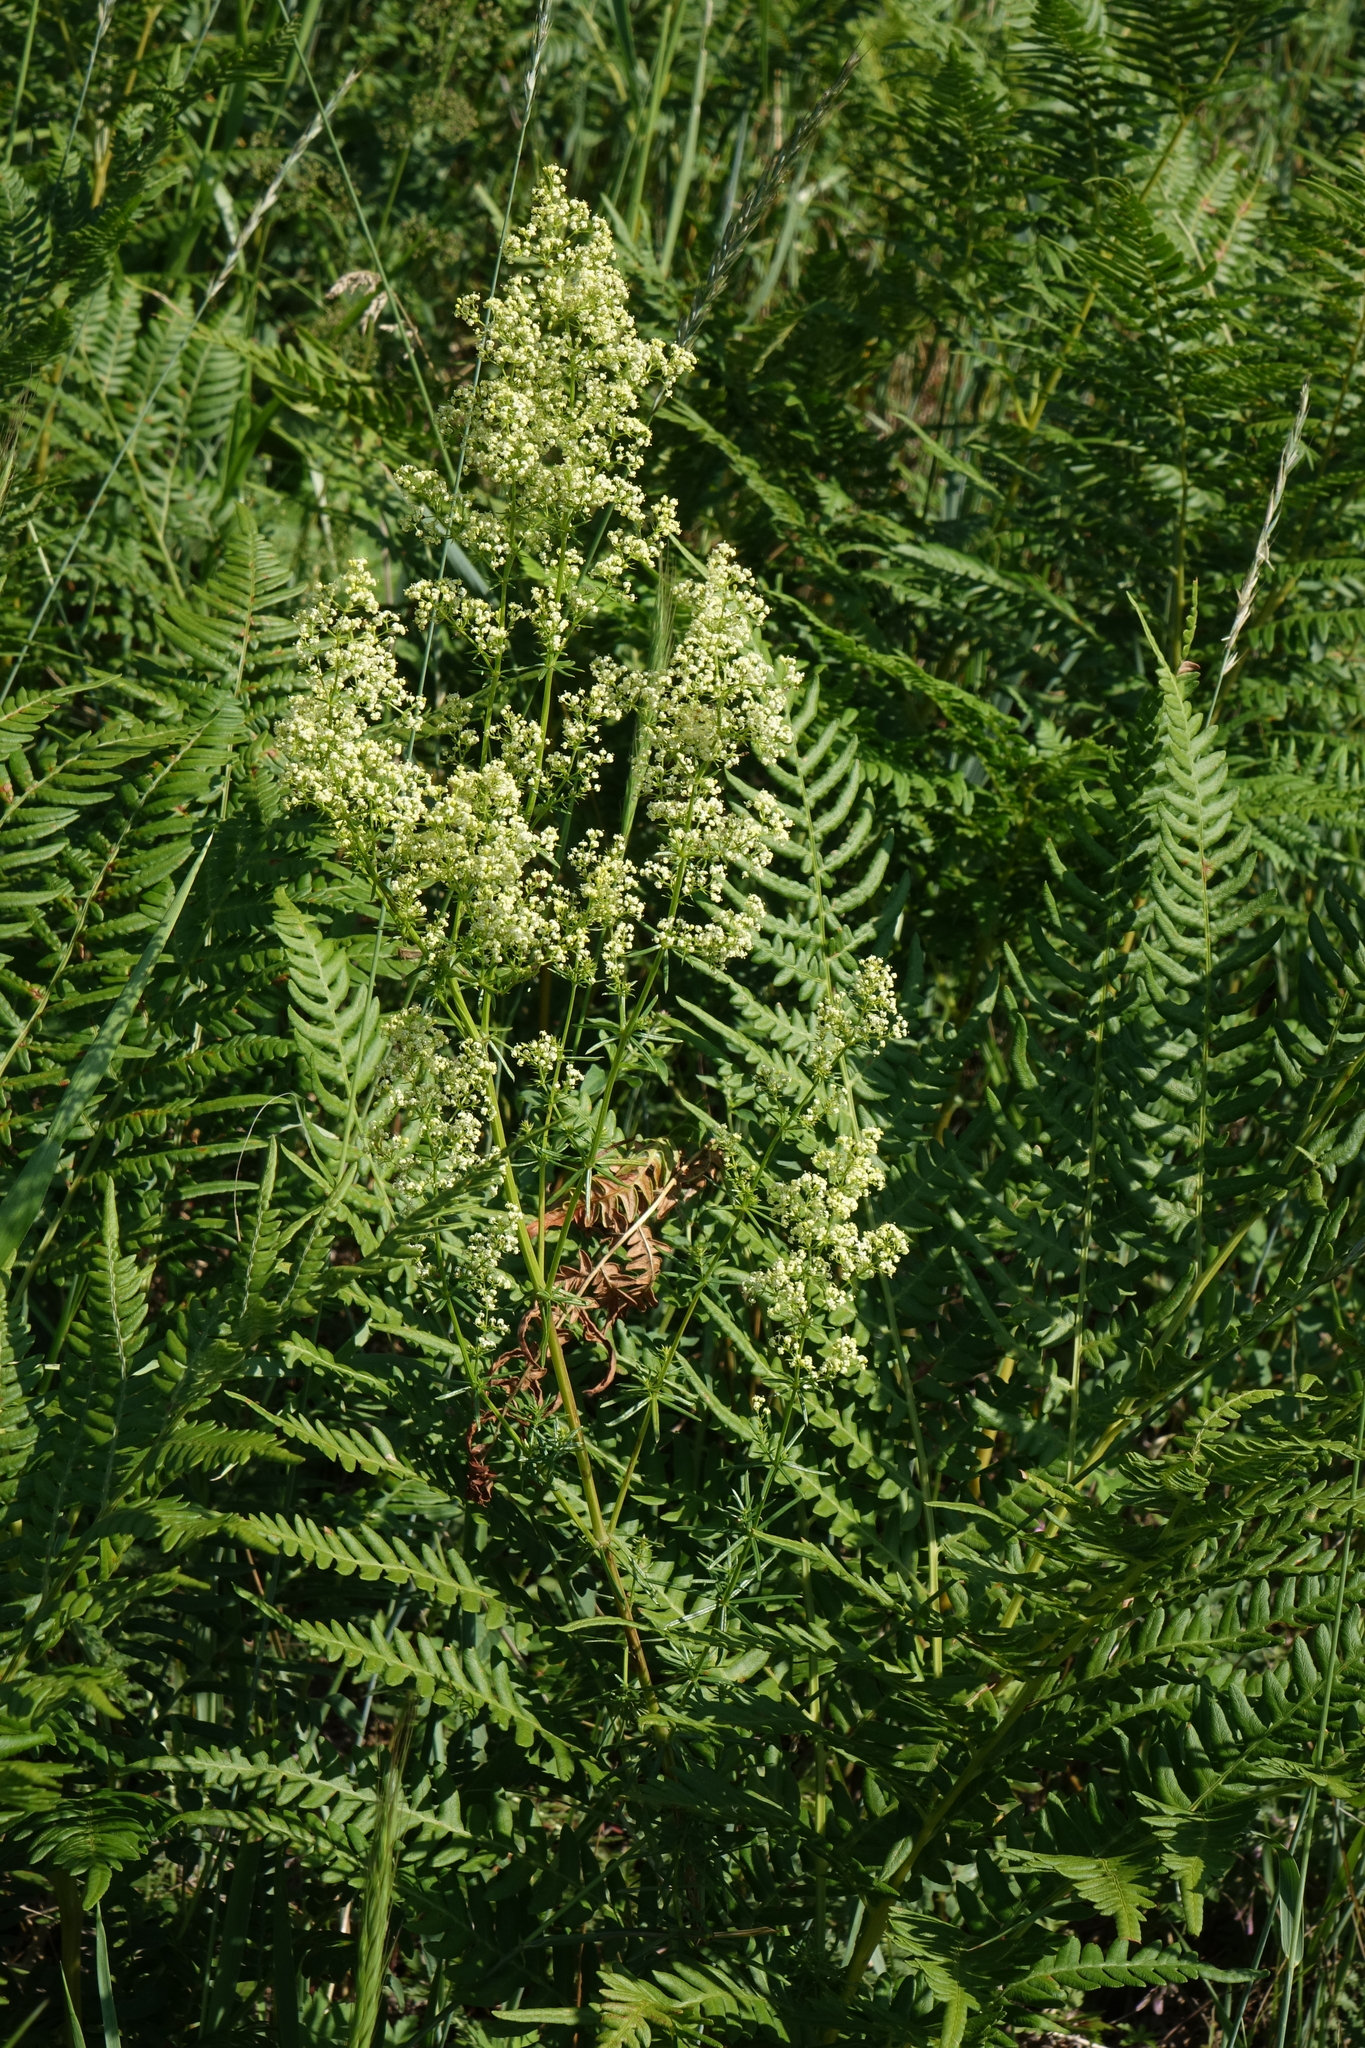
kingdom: Plantae
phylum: Tracheophyta
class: Polypodiopsida
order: Polypodiales
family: Dennstaedtiaceae
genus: Pteridium
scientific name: Pteridium aquilinum
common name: Bracken
